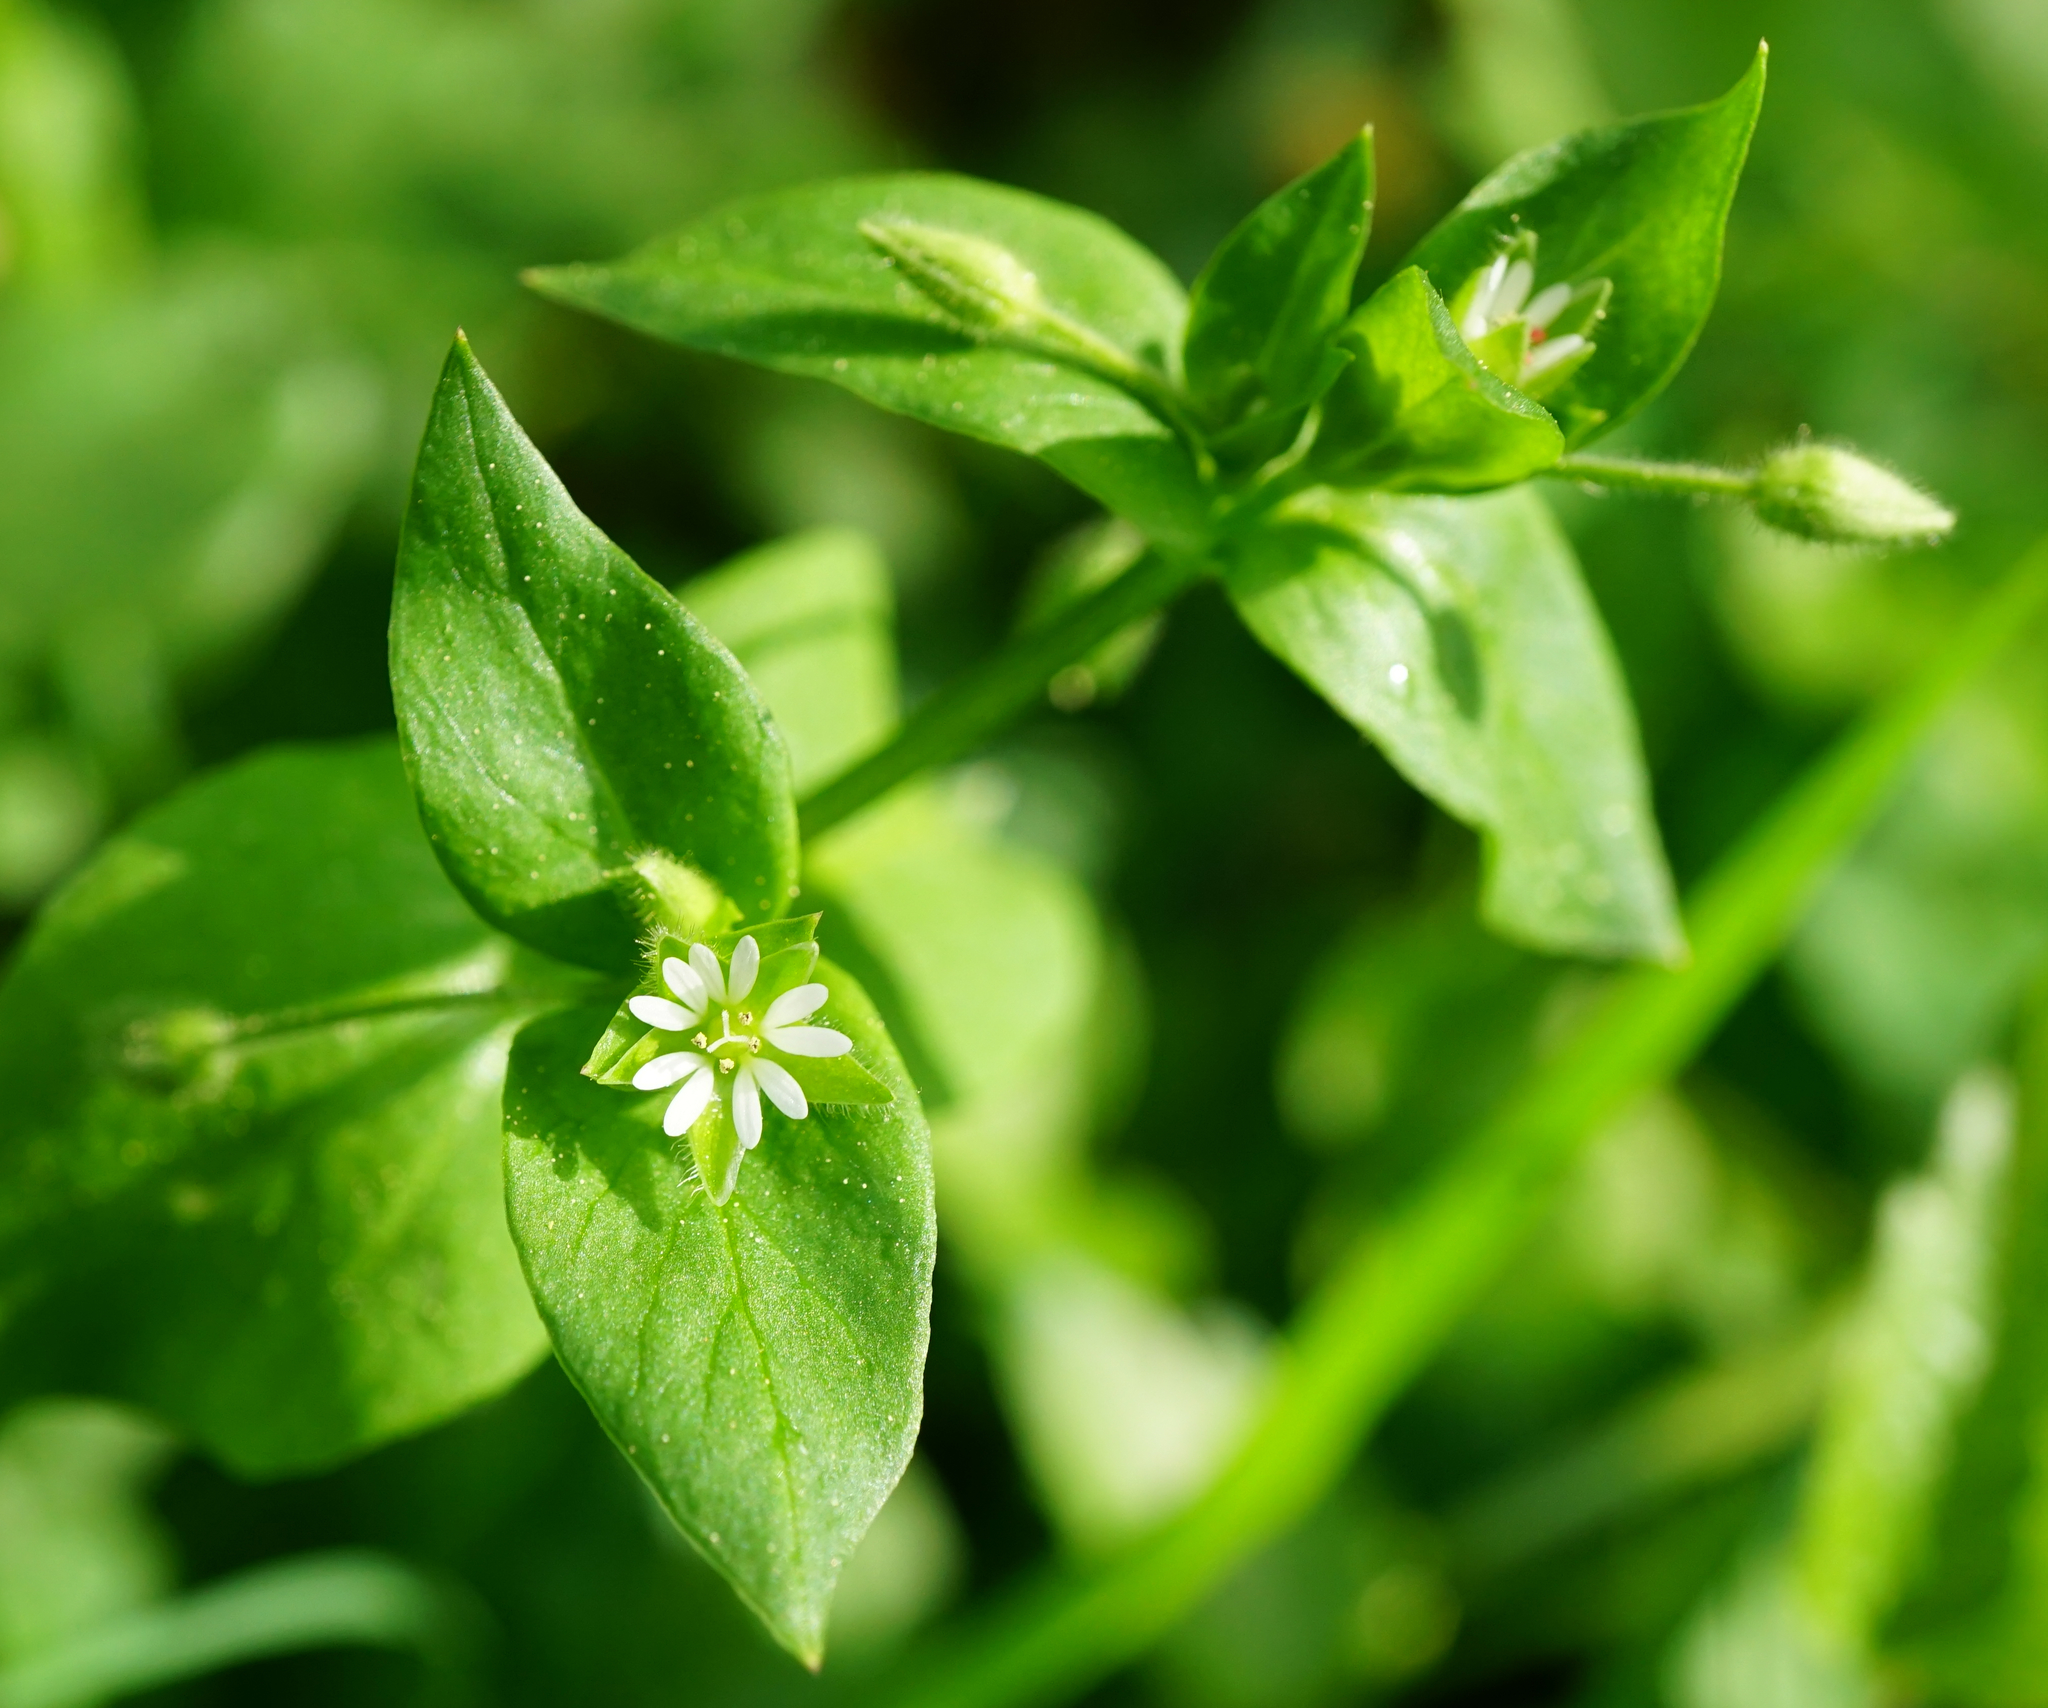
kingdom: Plantae
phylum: Tracheophyta
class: Magnoliopsida
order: Caryophyllales
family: Caryophyllaceae
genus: Stellaria
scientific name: Stellaria media
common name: Common chickweed
